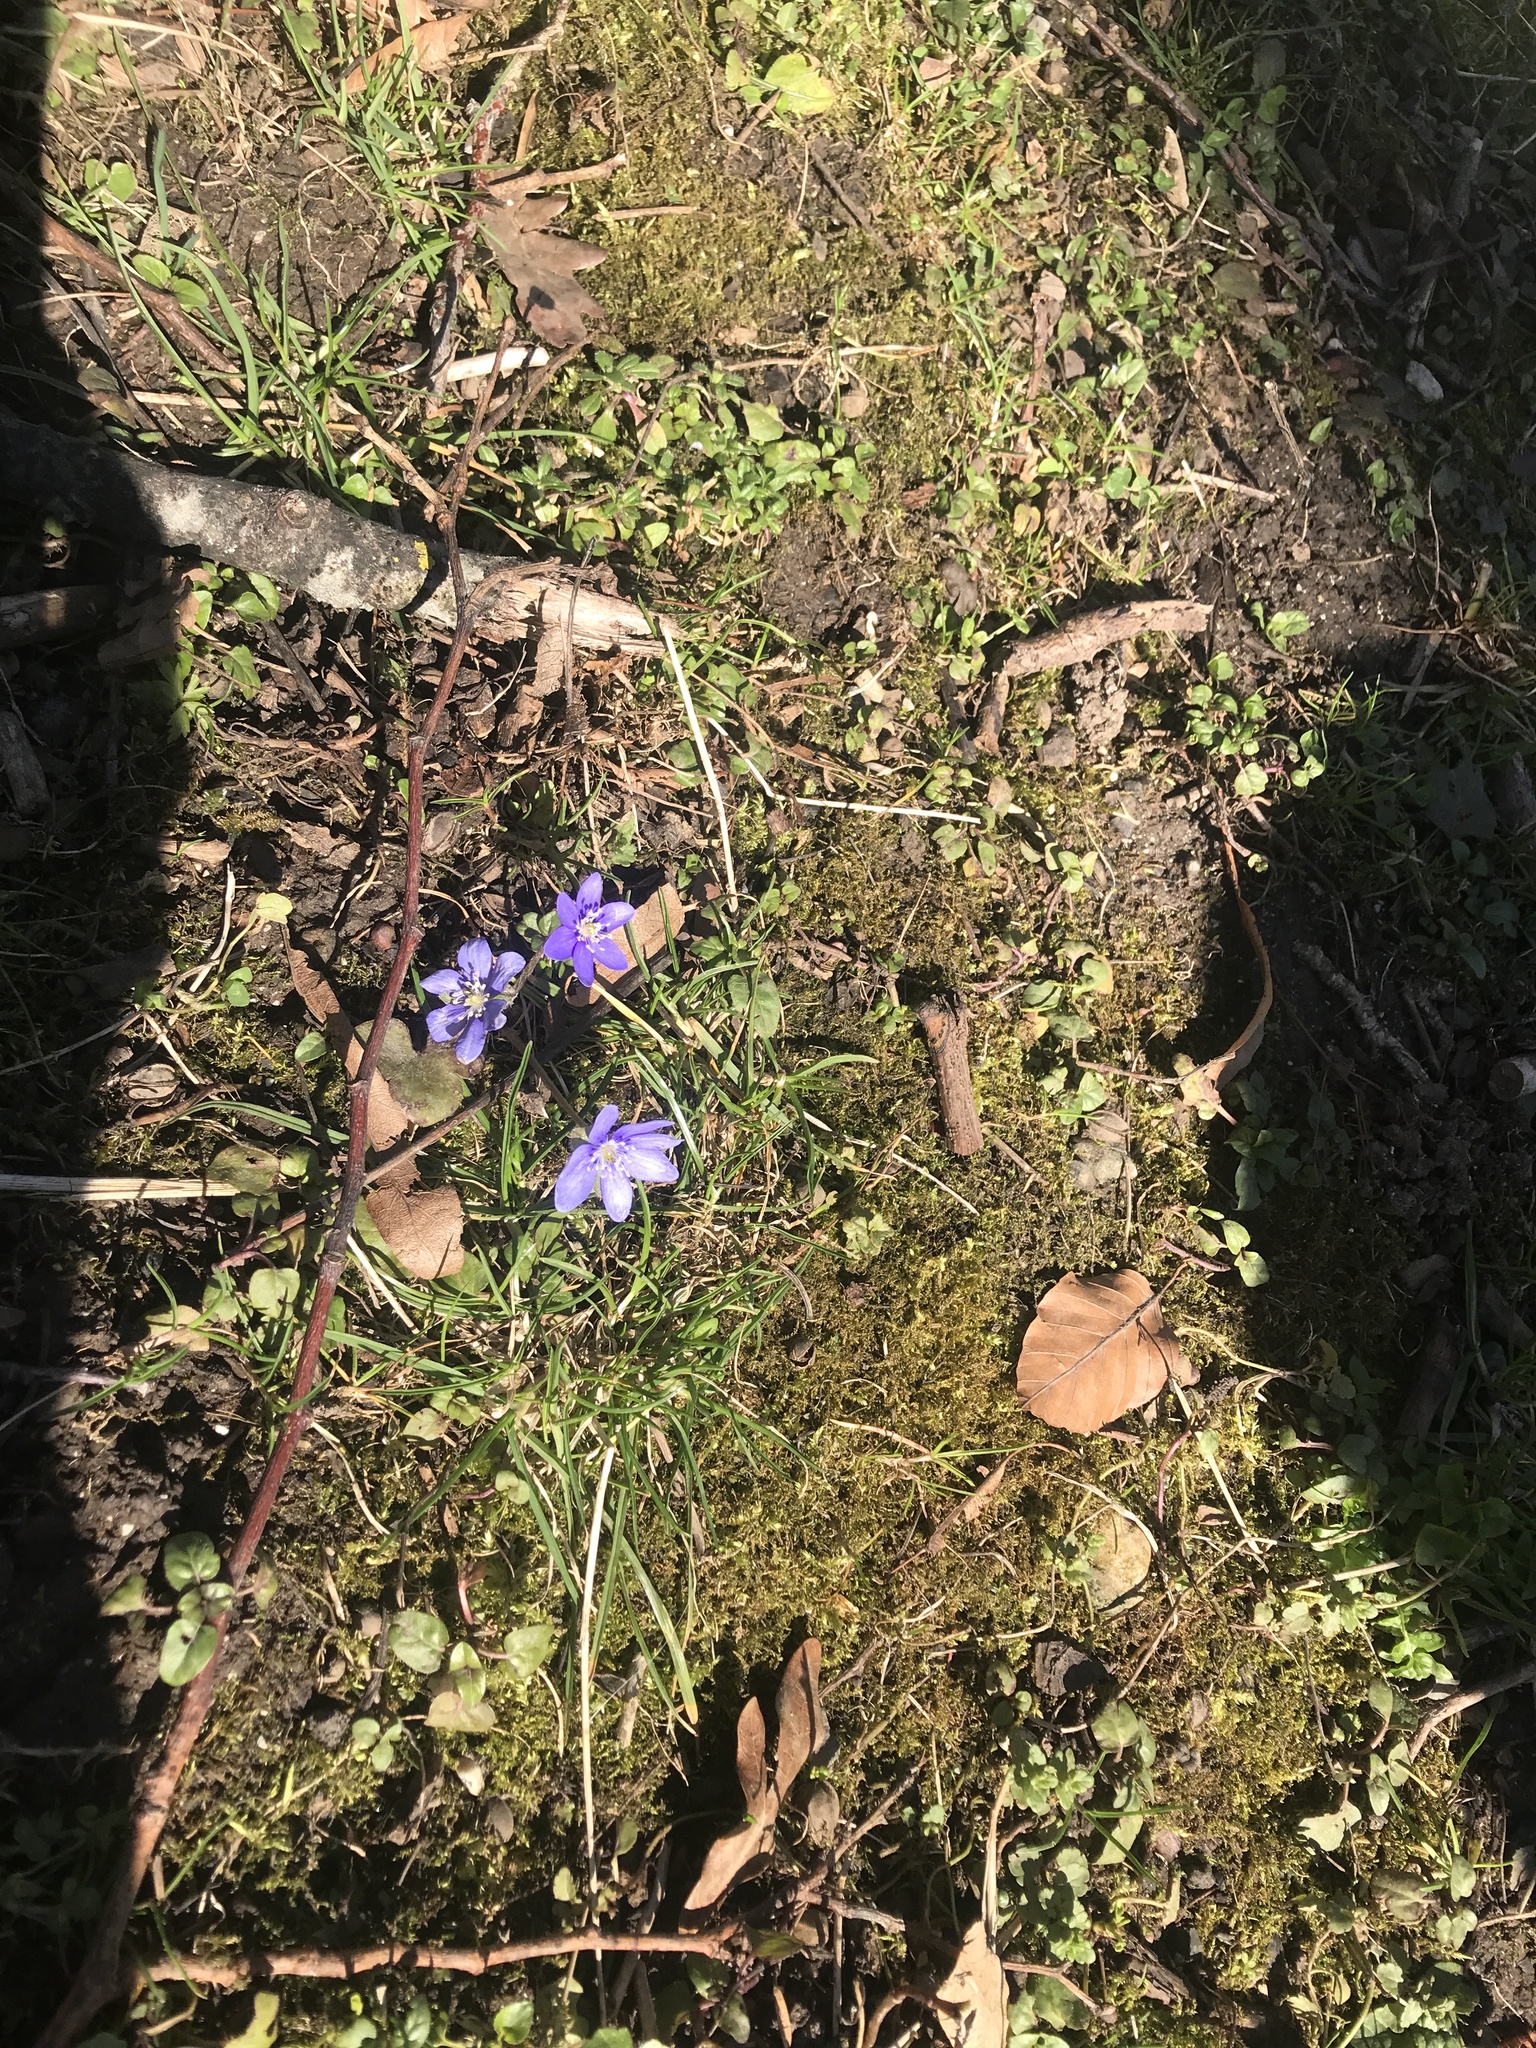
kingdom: Plantae
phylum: Tracheophyta
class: Magnoliopsida
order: Ranunculales
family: Ranunculaceae
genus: Hepatica
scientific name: Hepatica nobilis
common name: Liverleaf
